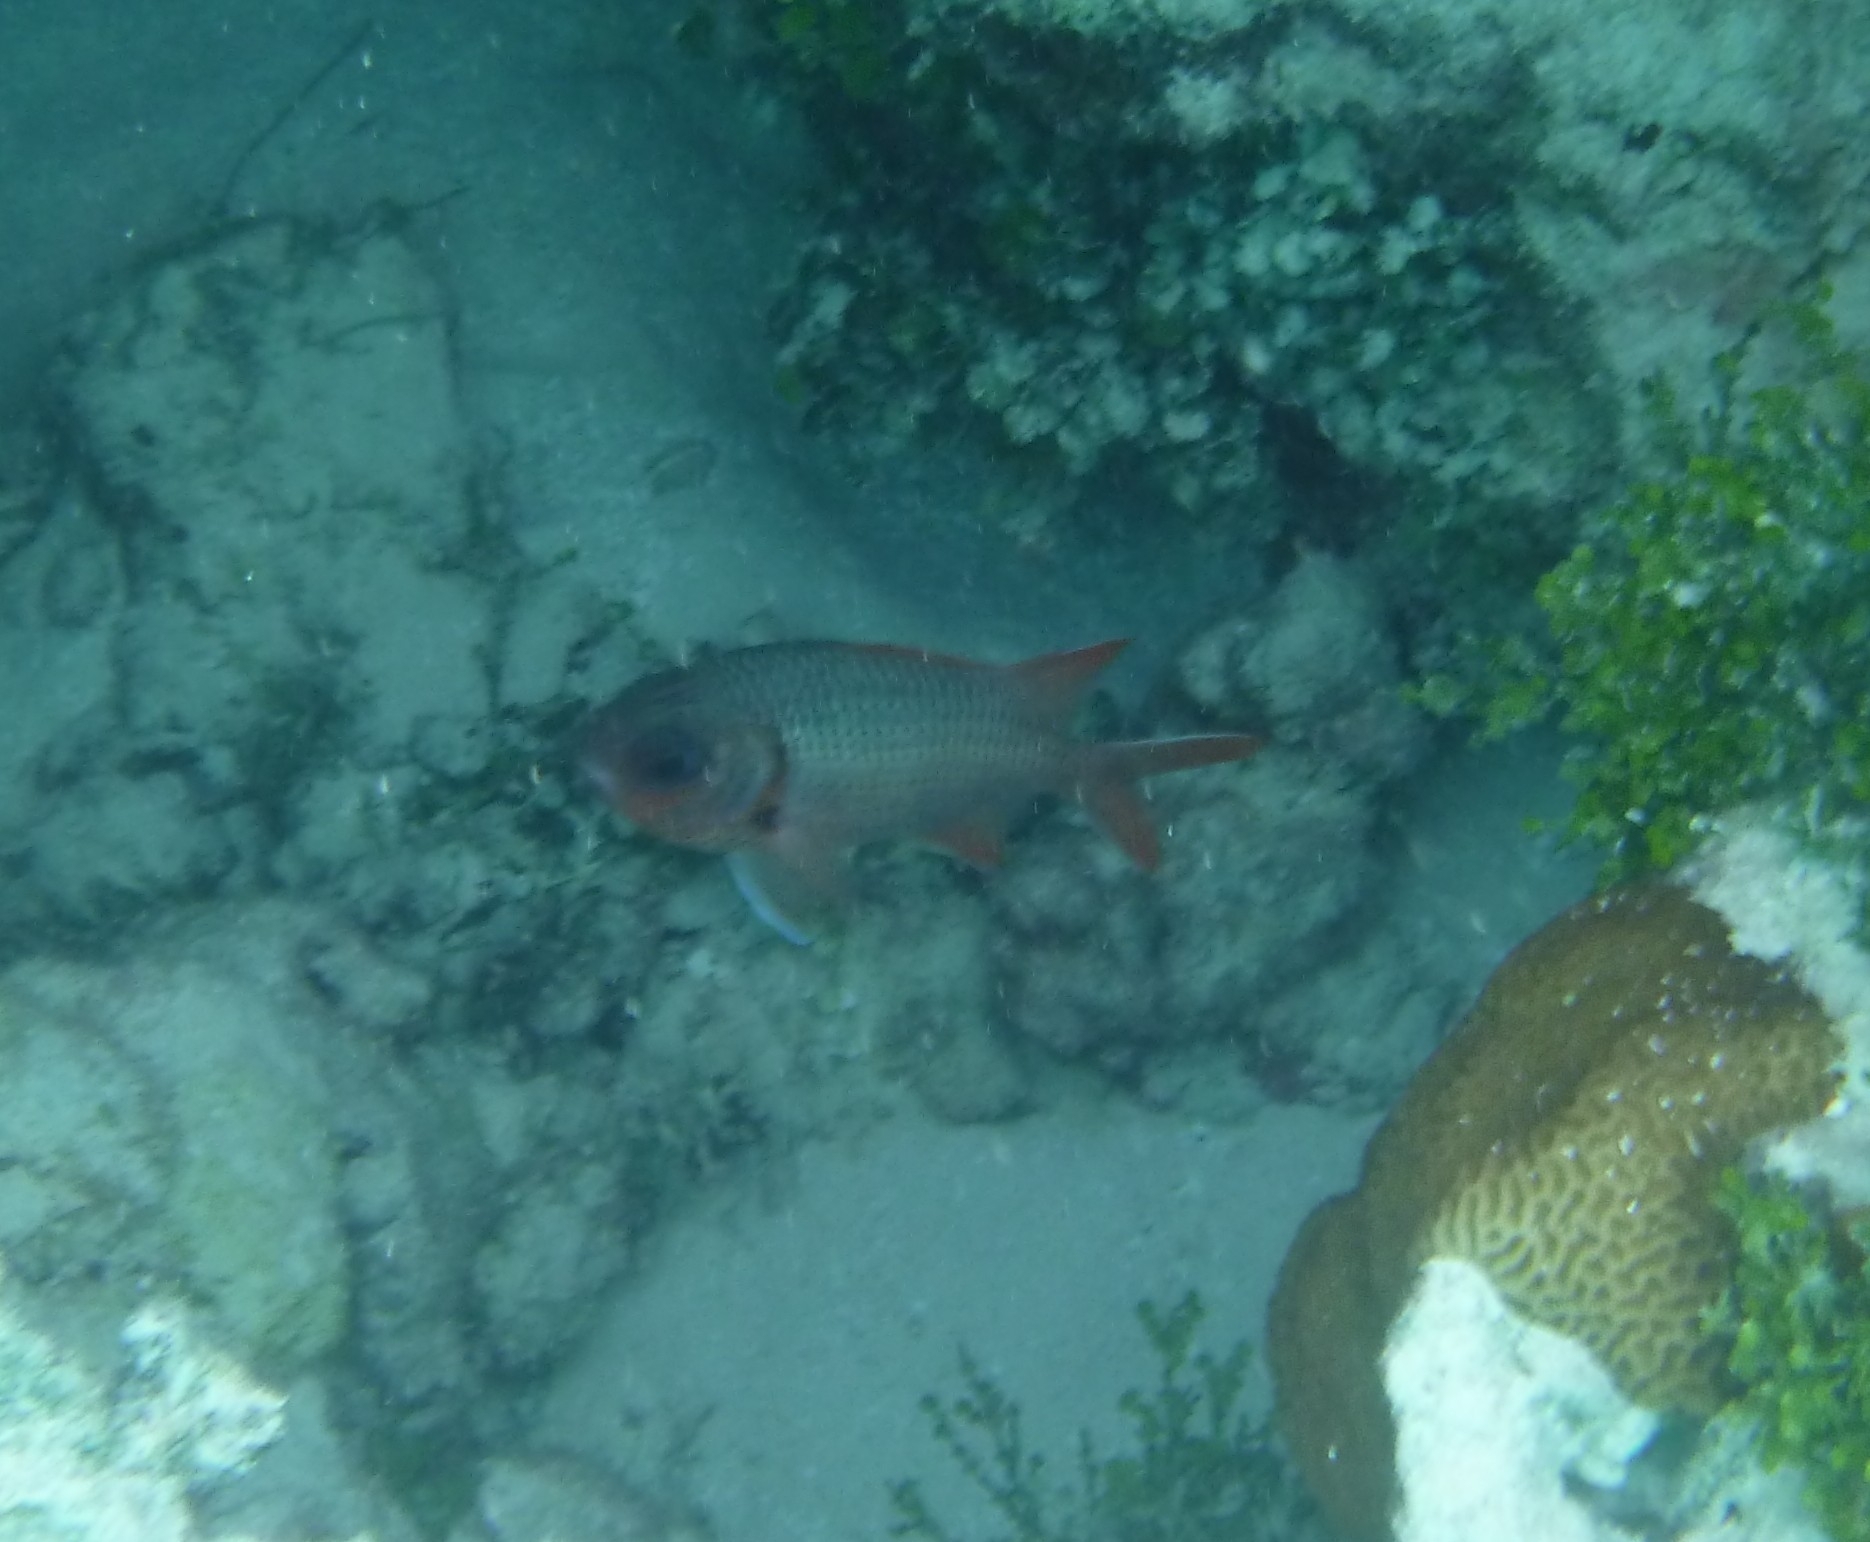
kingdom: Animalia
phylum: Chordata
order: Beryciformes
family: Holocentridae
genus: Myripristis
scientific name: Myripristis violacea
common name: Lattice soldierfish
